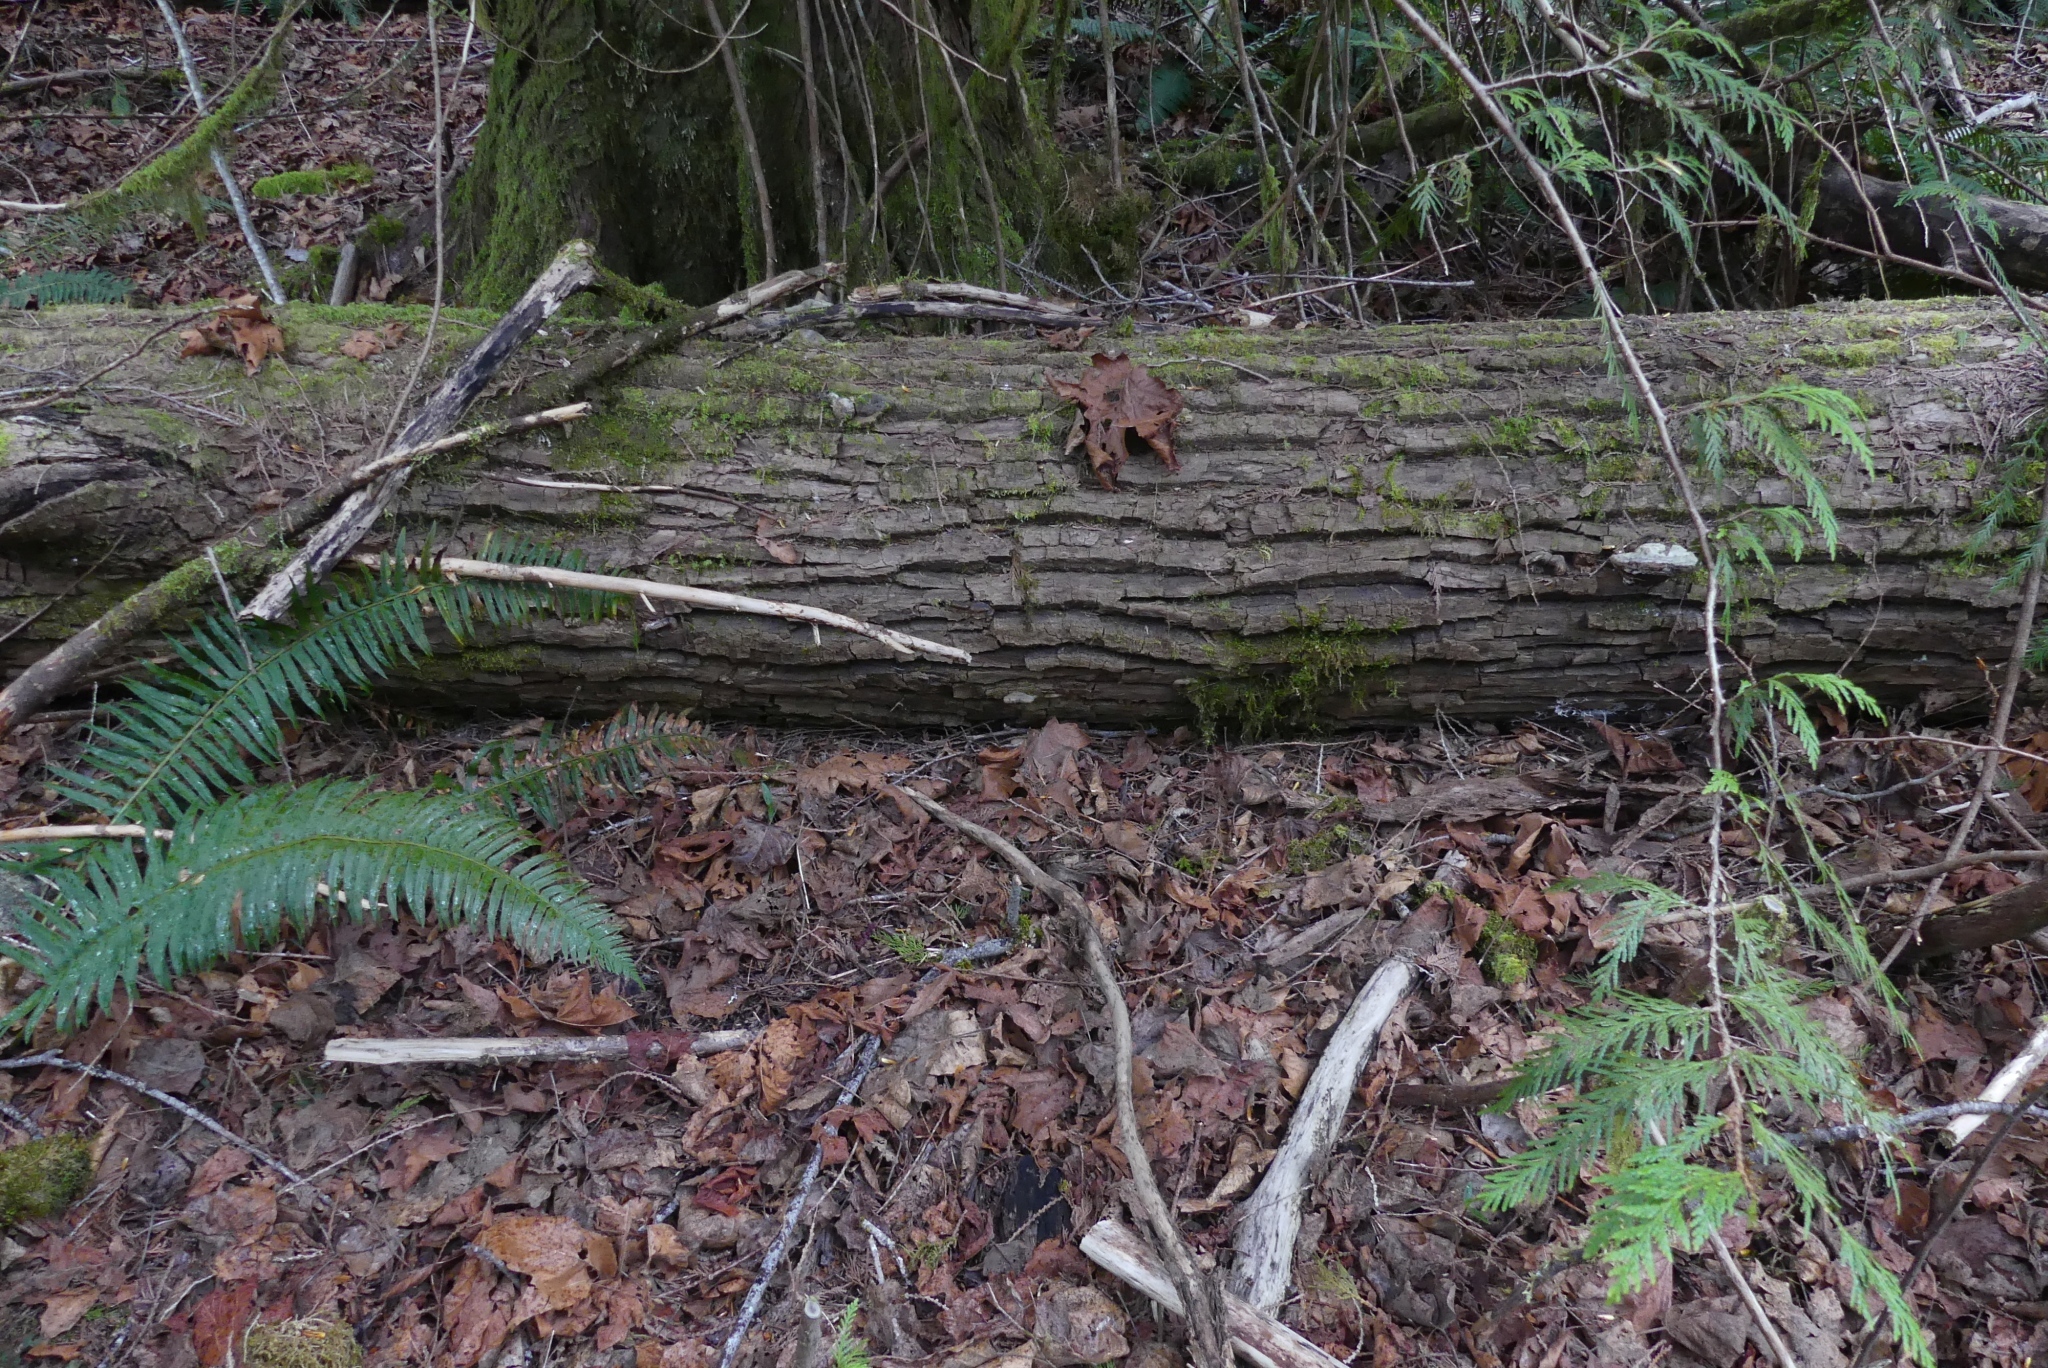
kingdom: Plantae
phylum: Tracheophyta
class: Magnoliopsida
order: Sapindales
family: Sapindaceae
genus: Acer
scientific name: Acer macrophyllum
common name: Oregon maple
